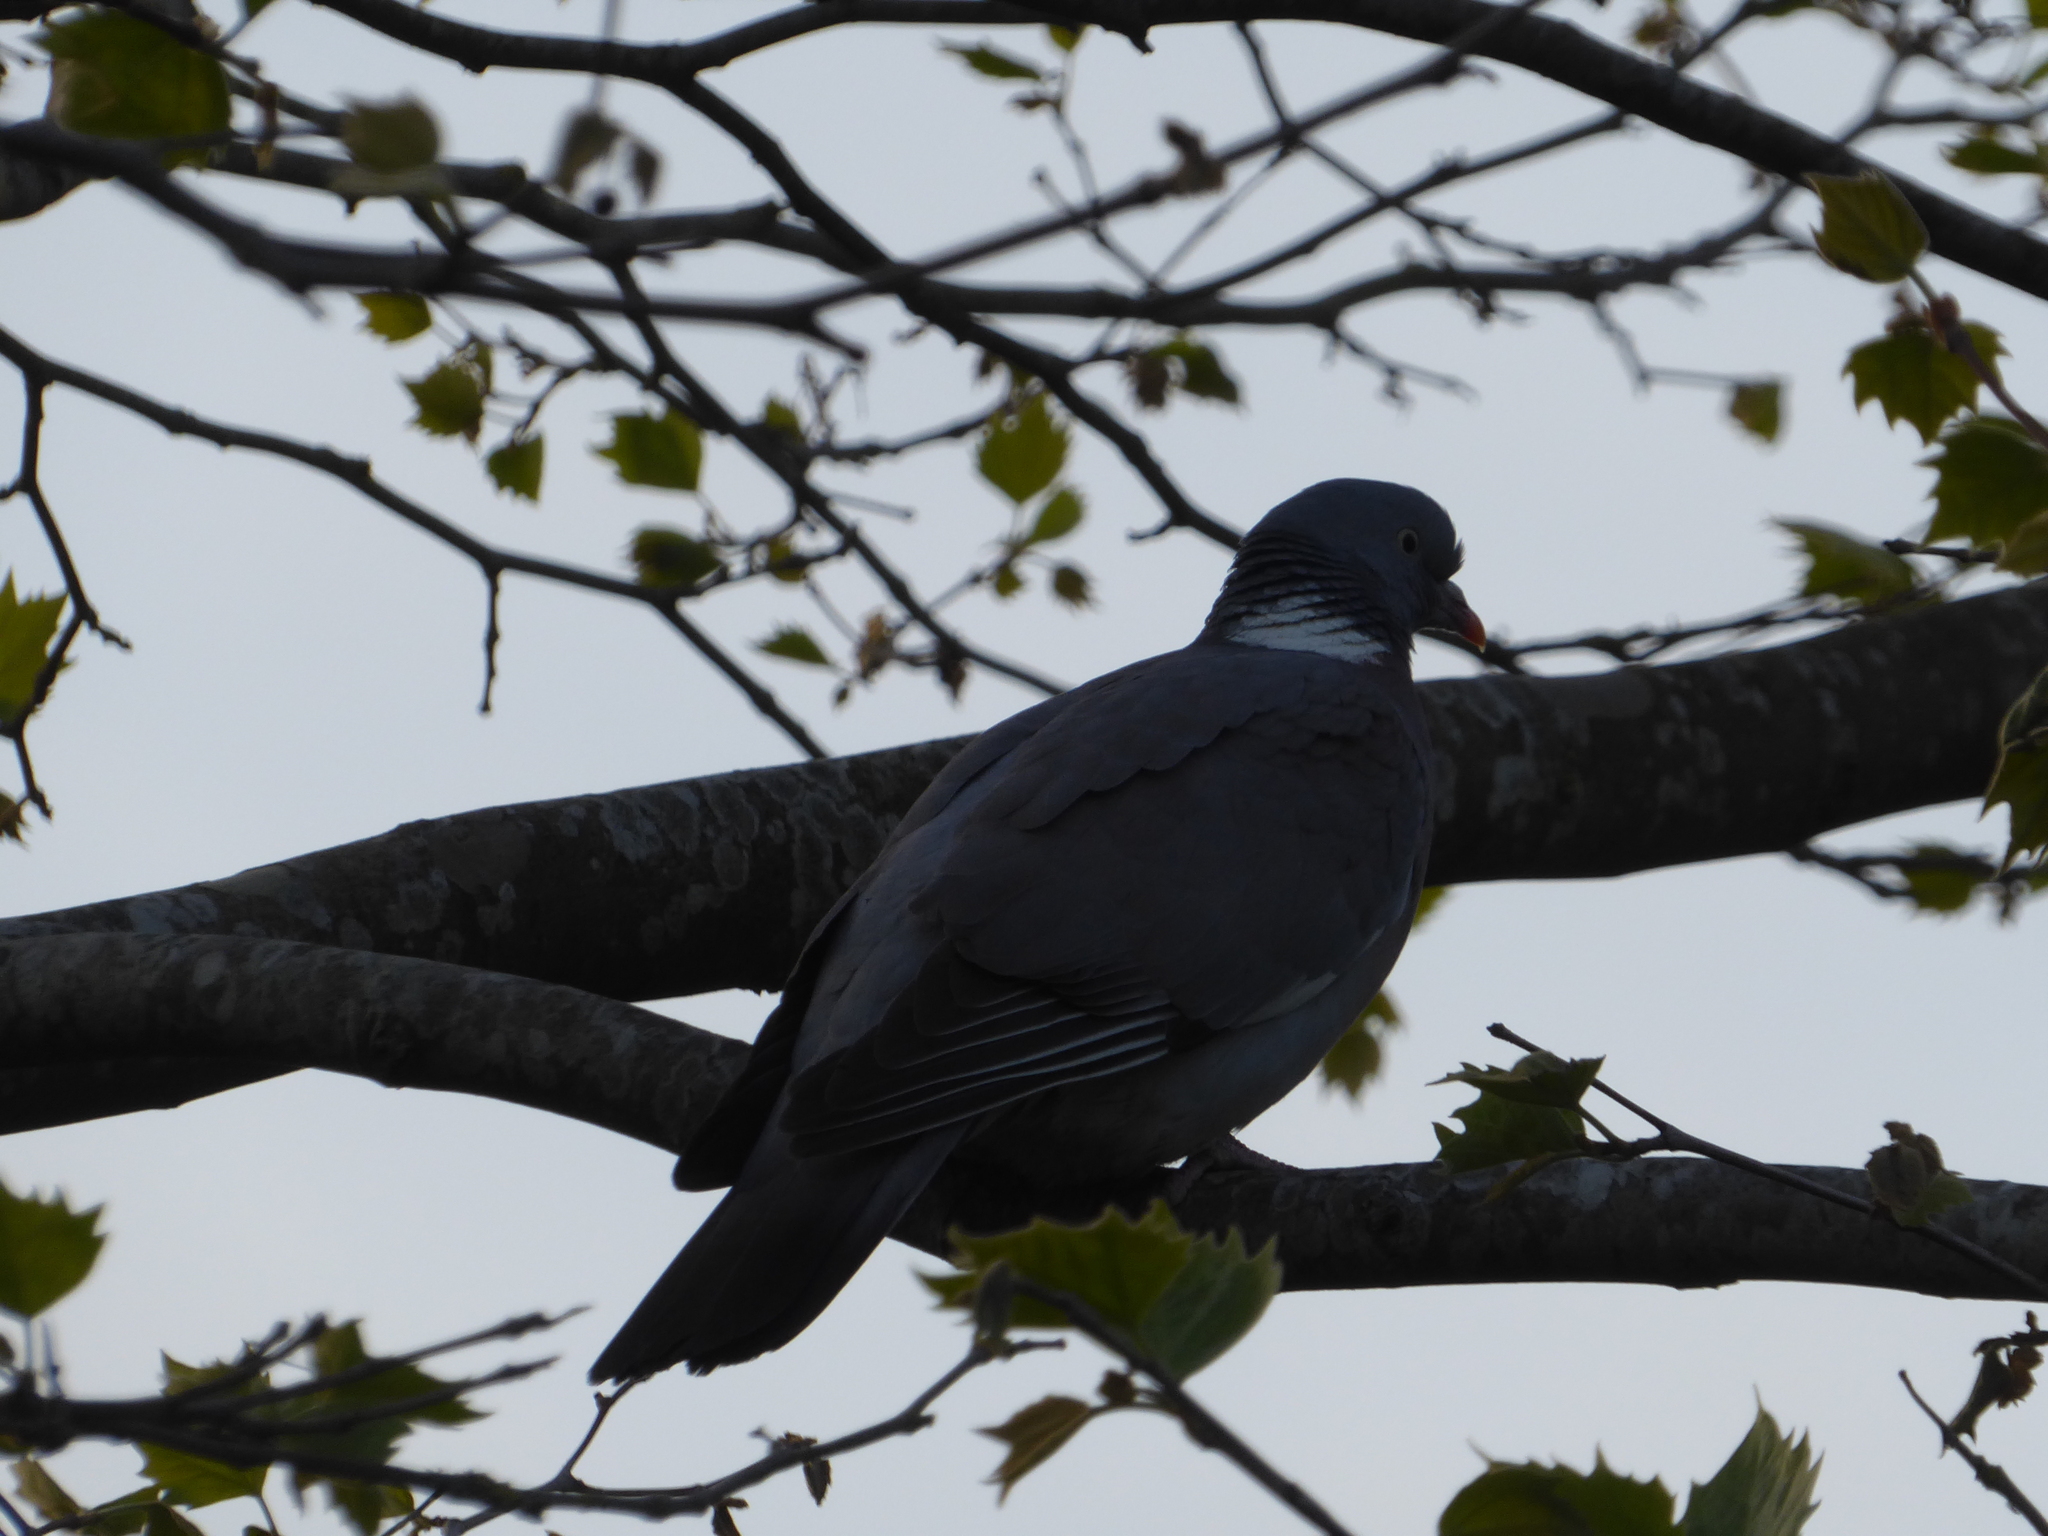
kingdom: Animalia
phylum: Chordata
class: Aves
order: Columbiformes
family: Columbidae
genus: Columba
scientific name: Columba palumbus
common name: Common wood pigeon
